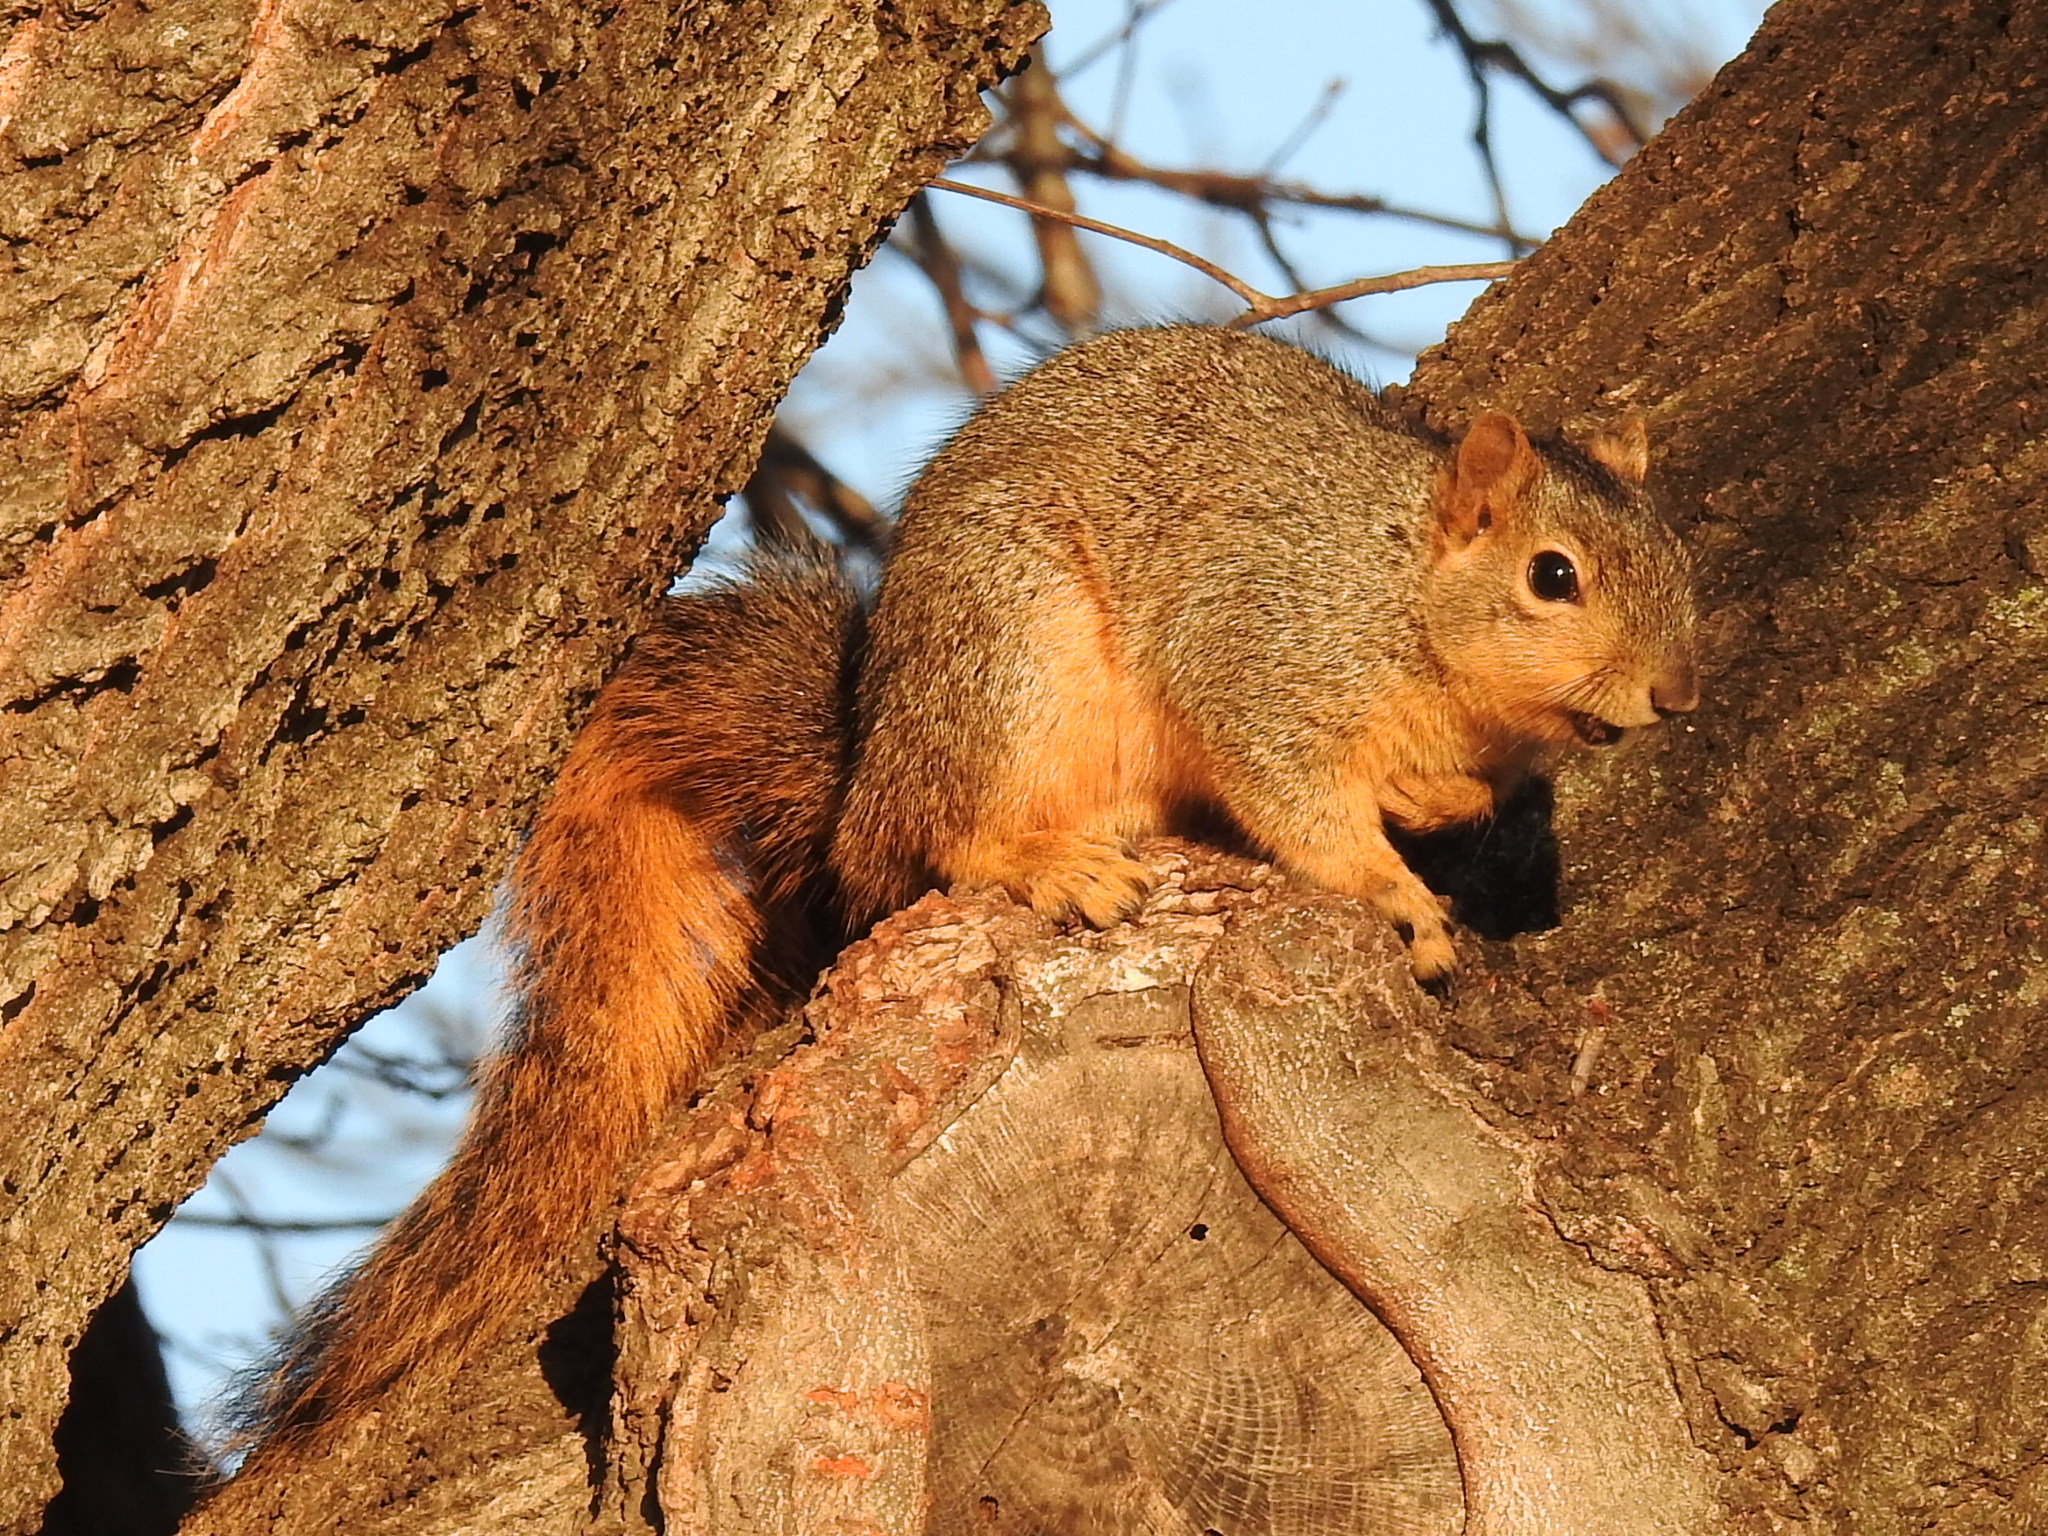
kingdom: Animalia
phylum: Chordata
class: Mammalia
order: Rodentia
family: Sciuridae
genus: Sciurus
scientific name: Sciurus niger
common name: Fox squirrel
